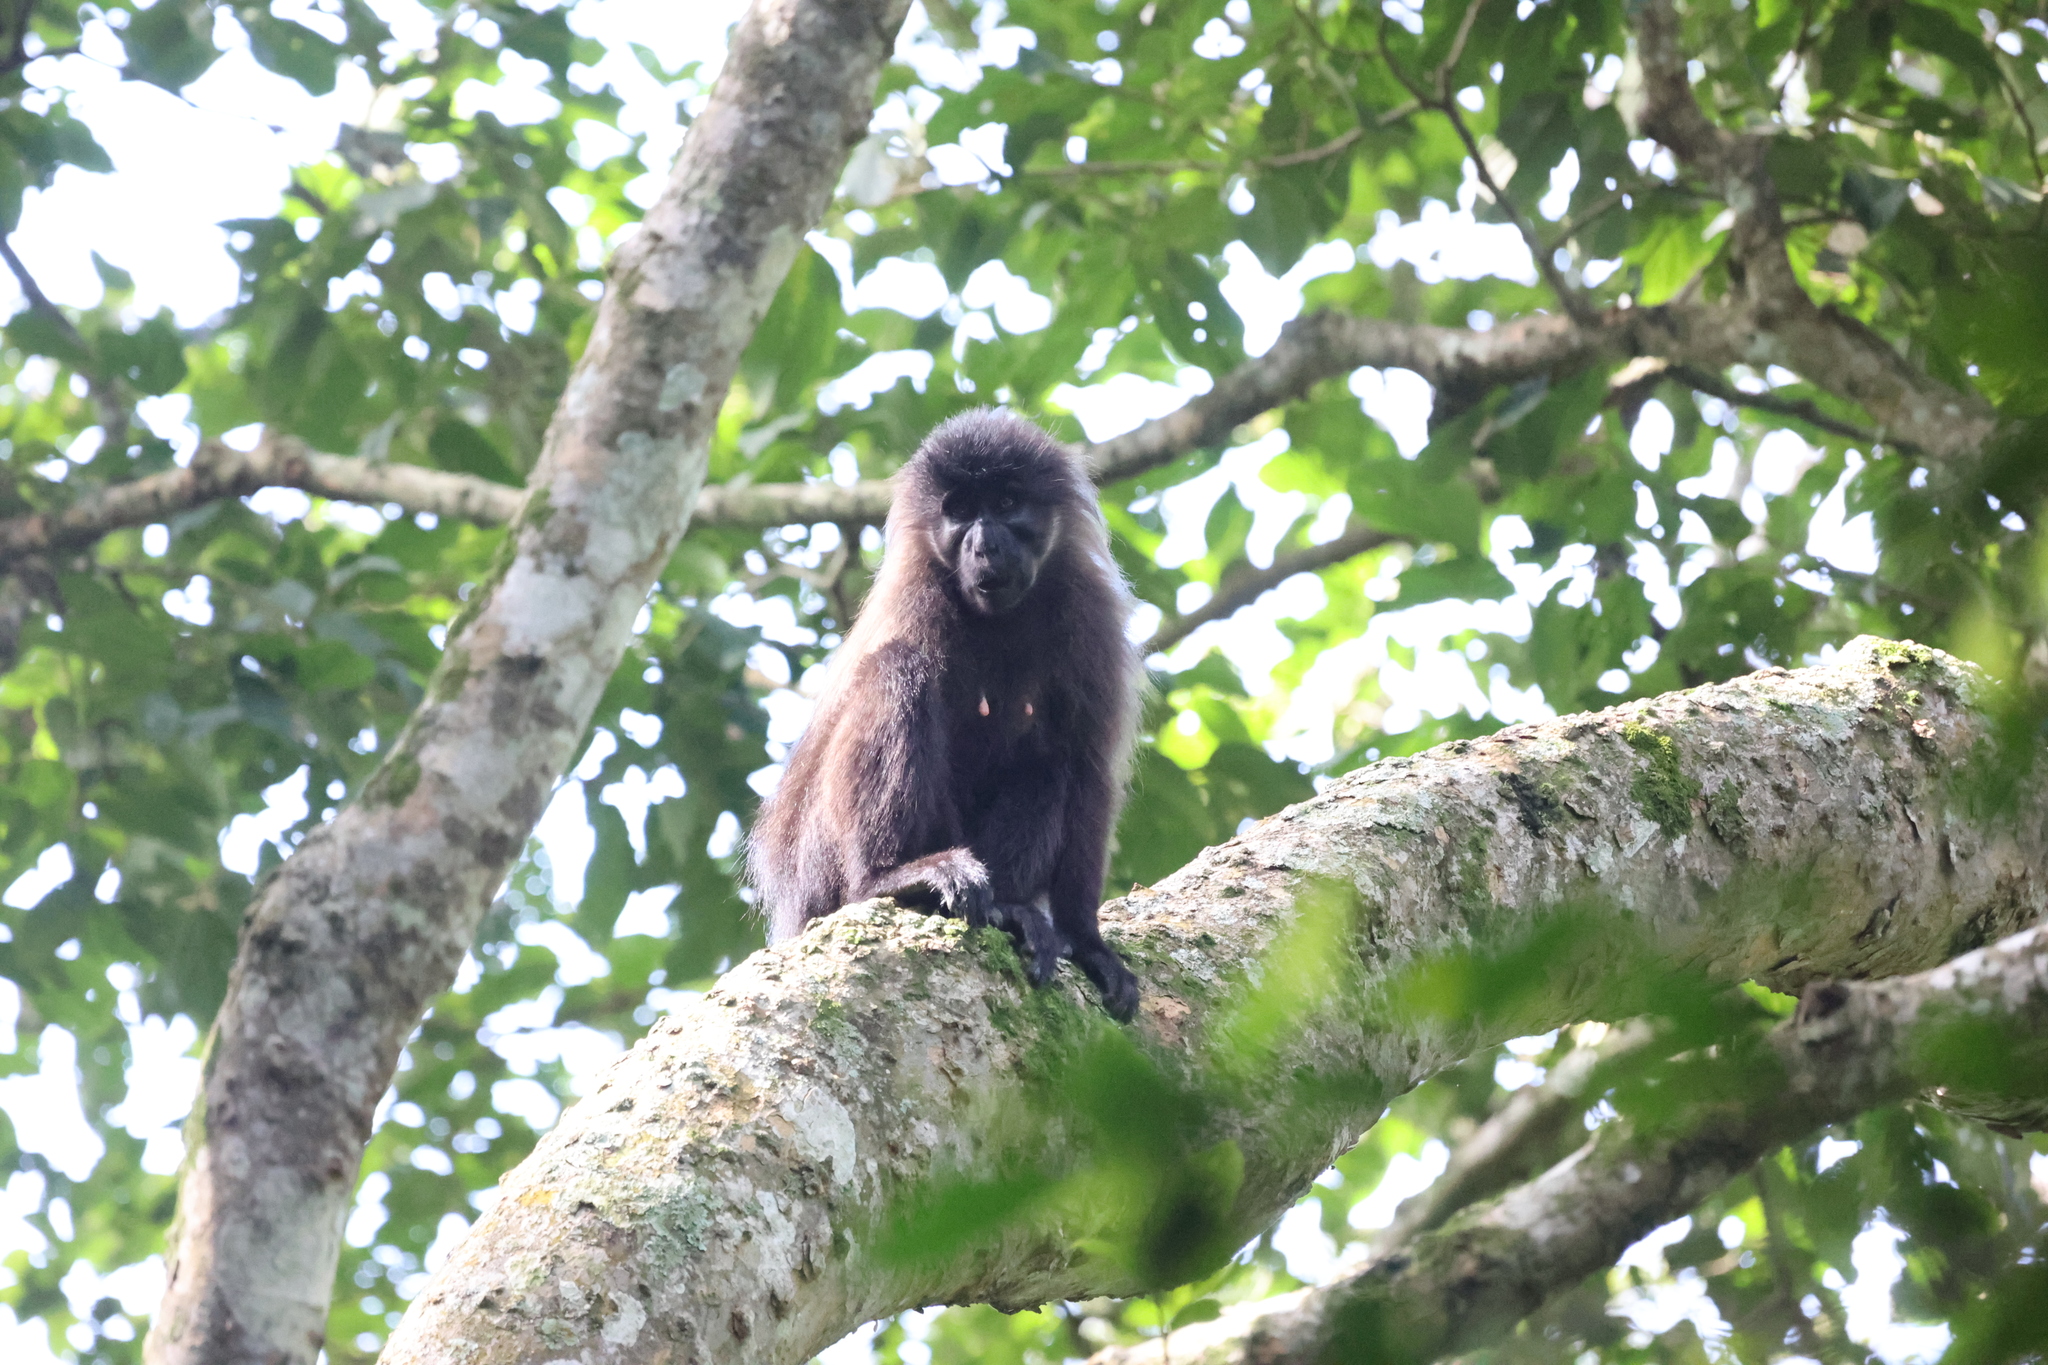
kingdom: Animalia
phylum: Chordata
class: Mammalia
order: Primates
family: Cercopithecidae
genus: Lophocebus
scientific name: Lophocebus albigena
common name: Gray-cheeked mangabey
